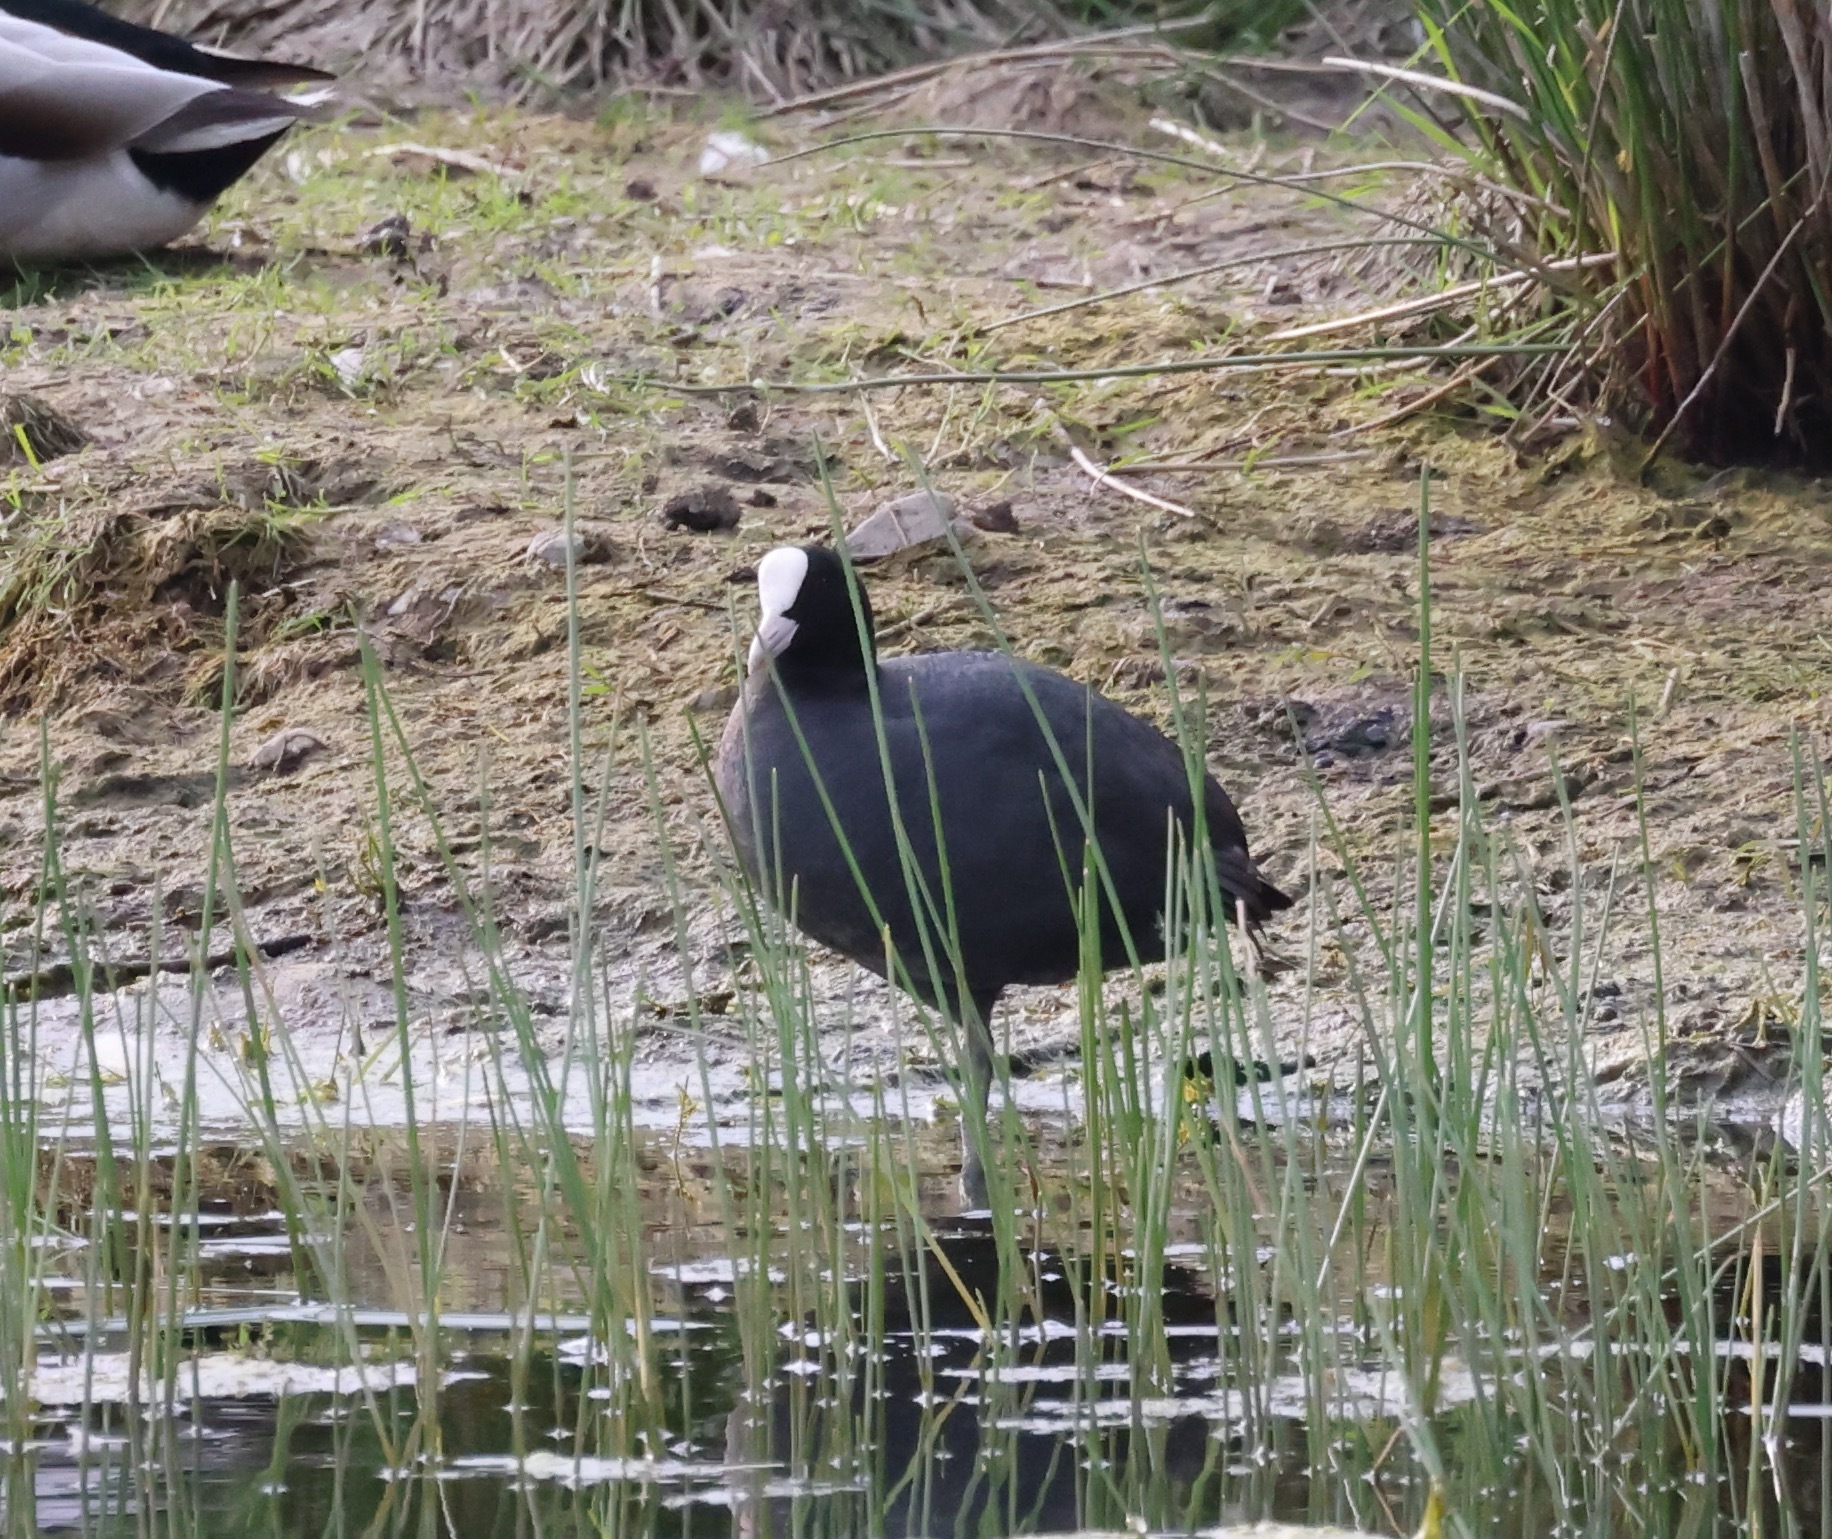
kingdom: Animalia
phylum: Chordata
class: Aves
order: Gruiformes
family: Rallidae
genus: Fulica
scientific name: Fulica atra
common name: Eurasian coot
